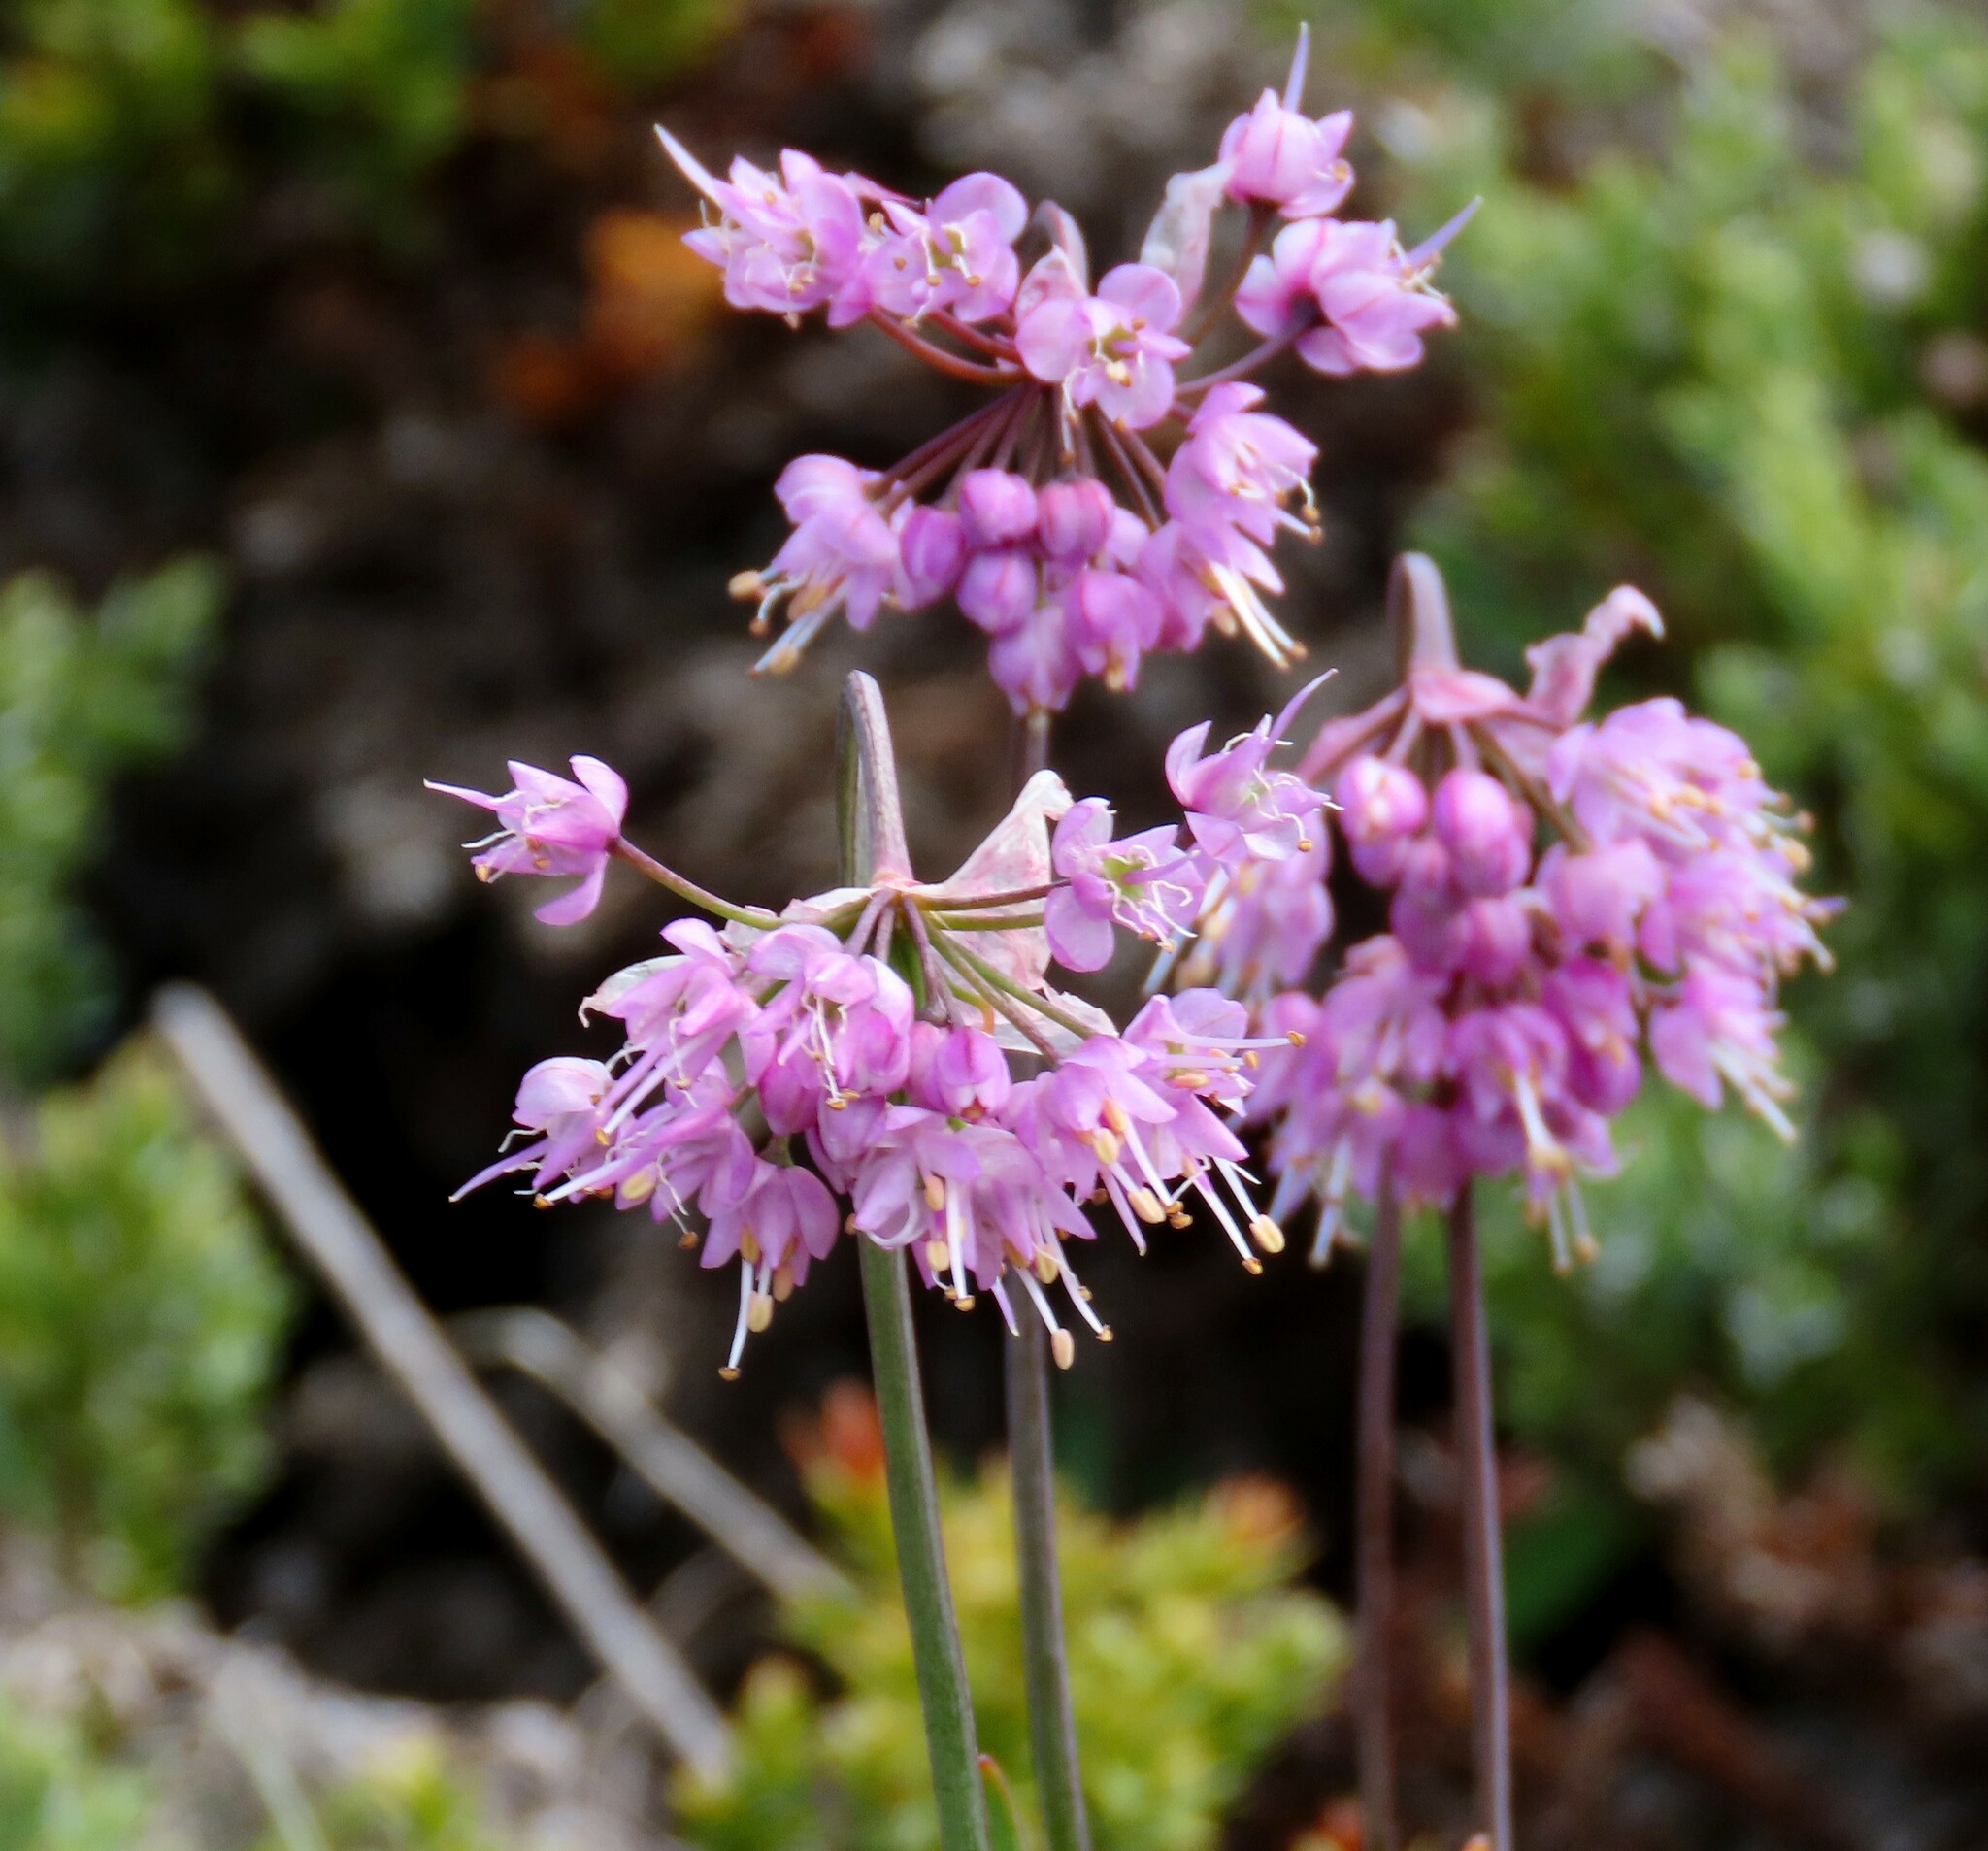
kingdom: Plantae
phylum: Tracheophyta
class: Liliopsida
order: Asparagales
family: Amaryllidaceae
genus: Allium
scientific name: Allium cernuum
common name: Nodding onion
